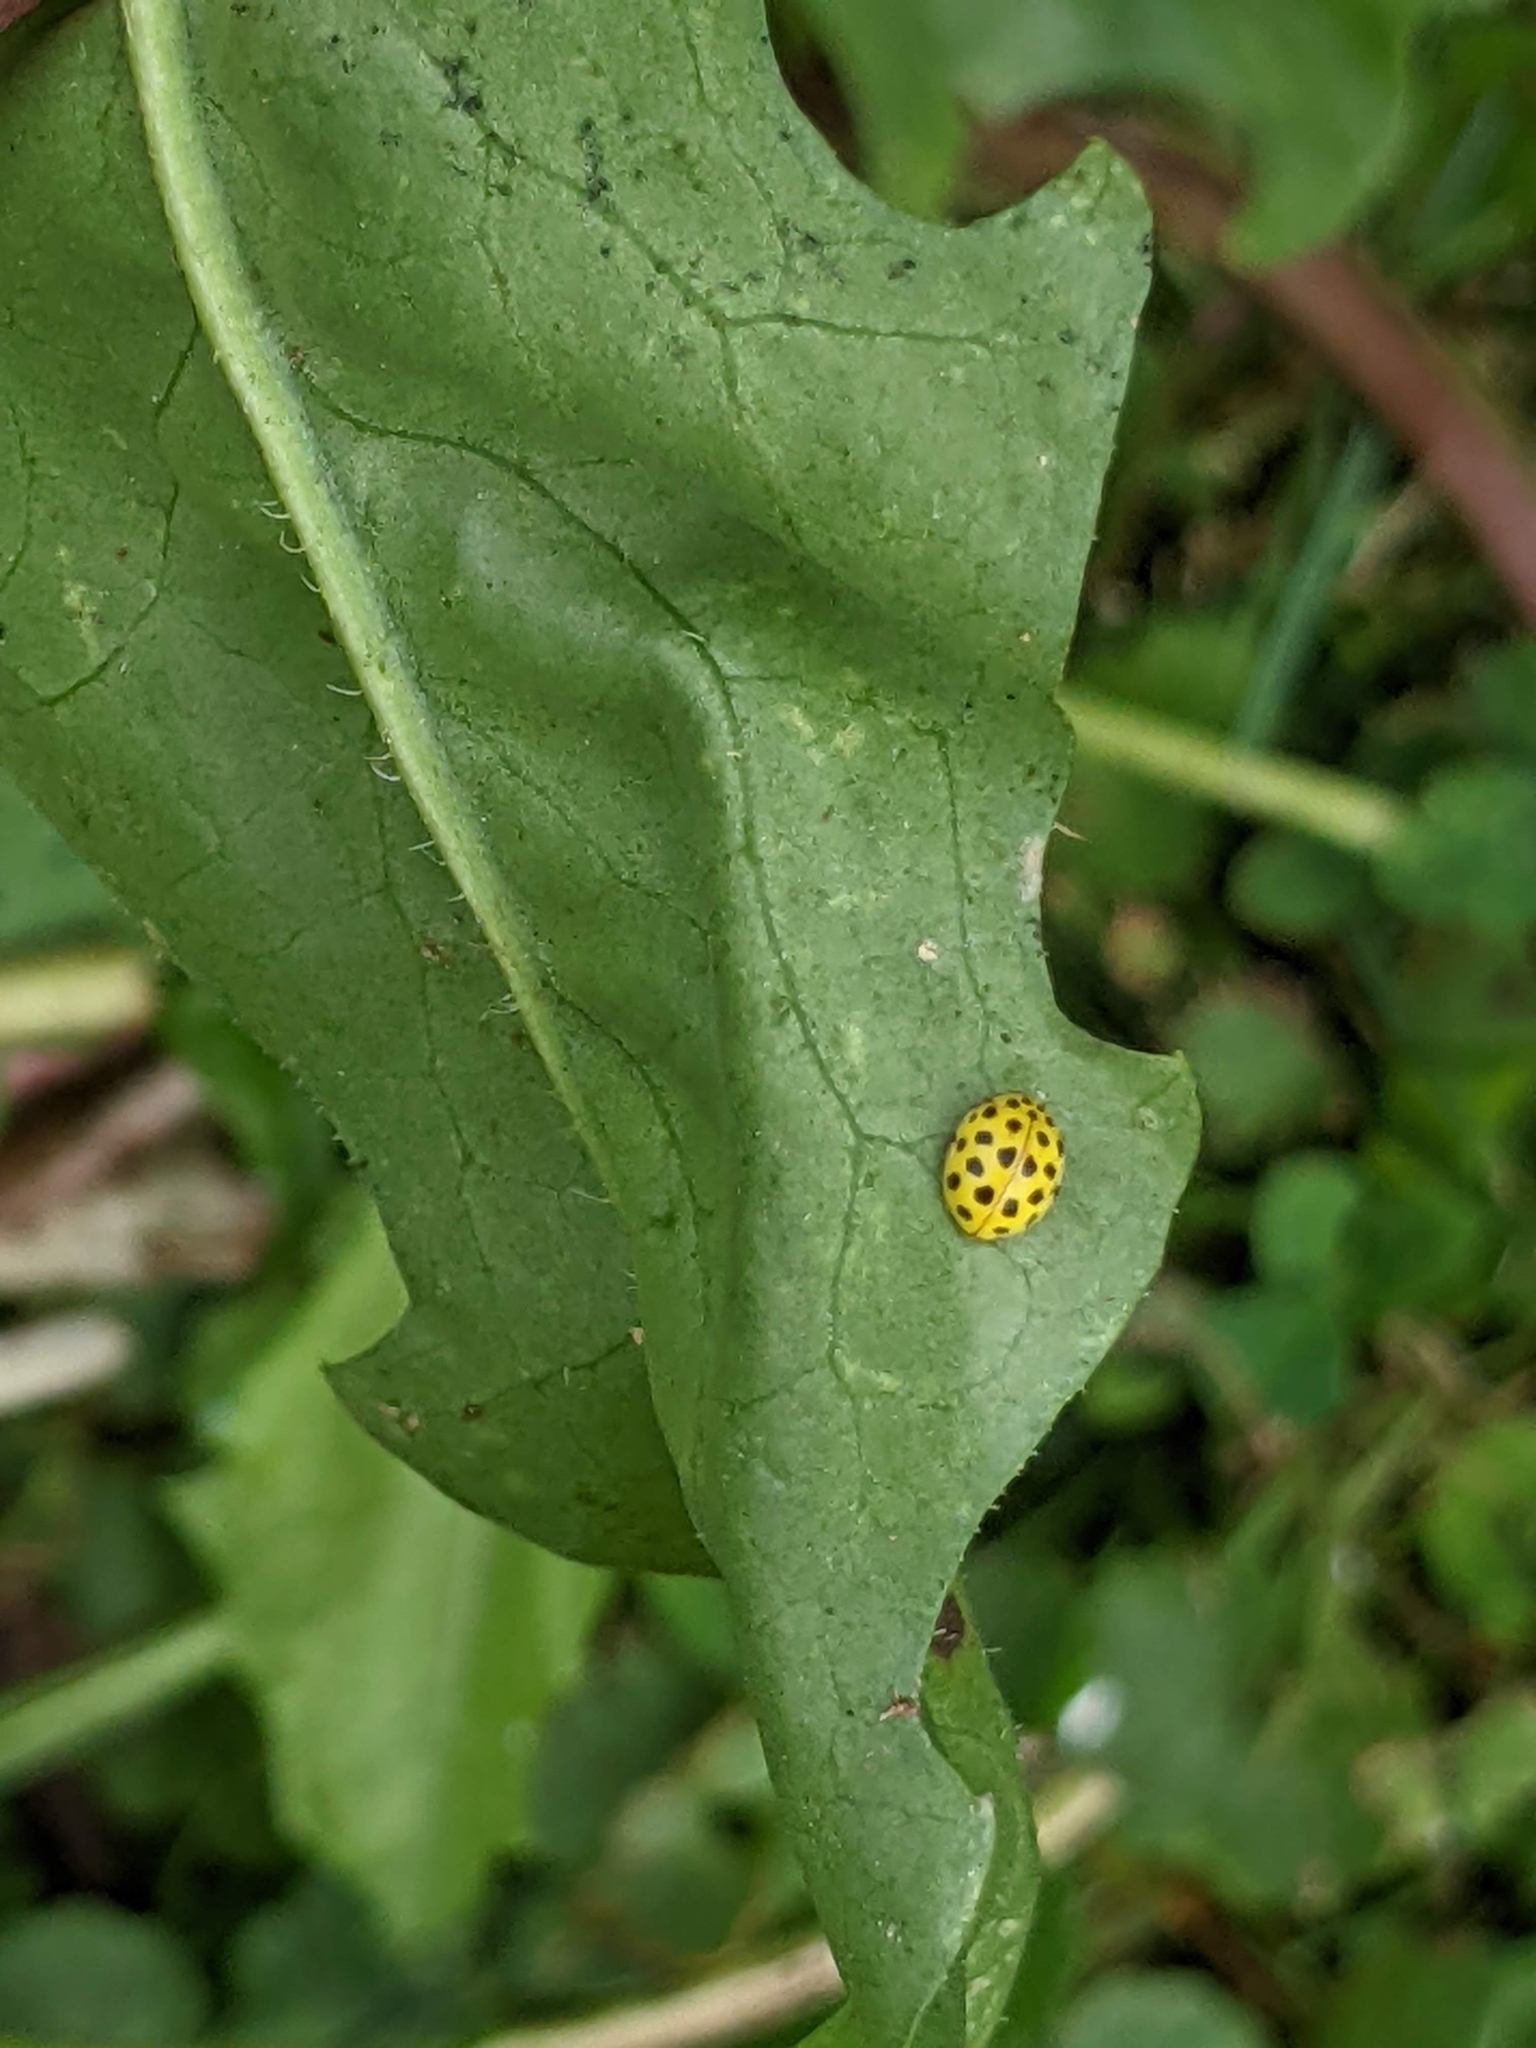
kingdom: Animalia
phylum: Arthropoda
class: Insecta
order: Coleoptera
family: Coccinellidae
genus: Psyllobora
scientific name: Psyllobora vigintiduopunctata
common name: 22-spot ladybird
